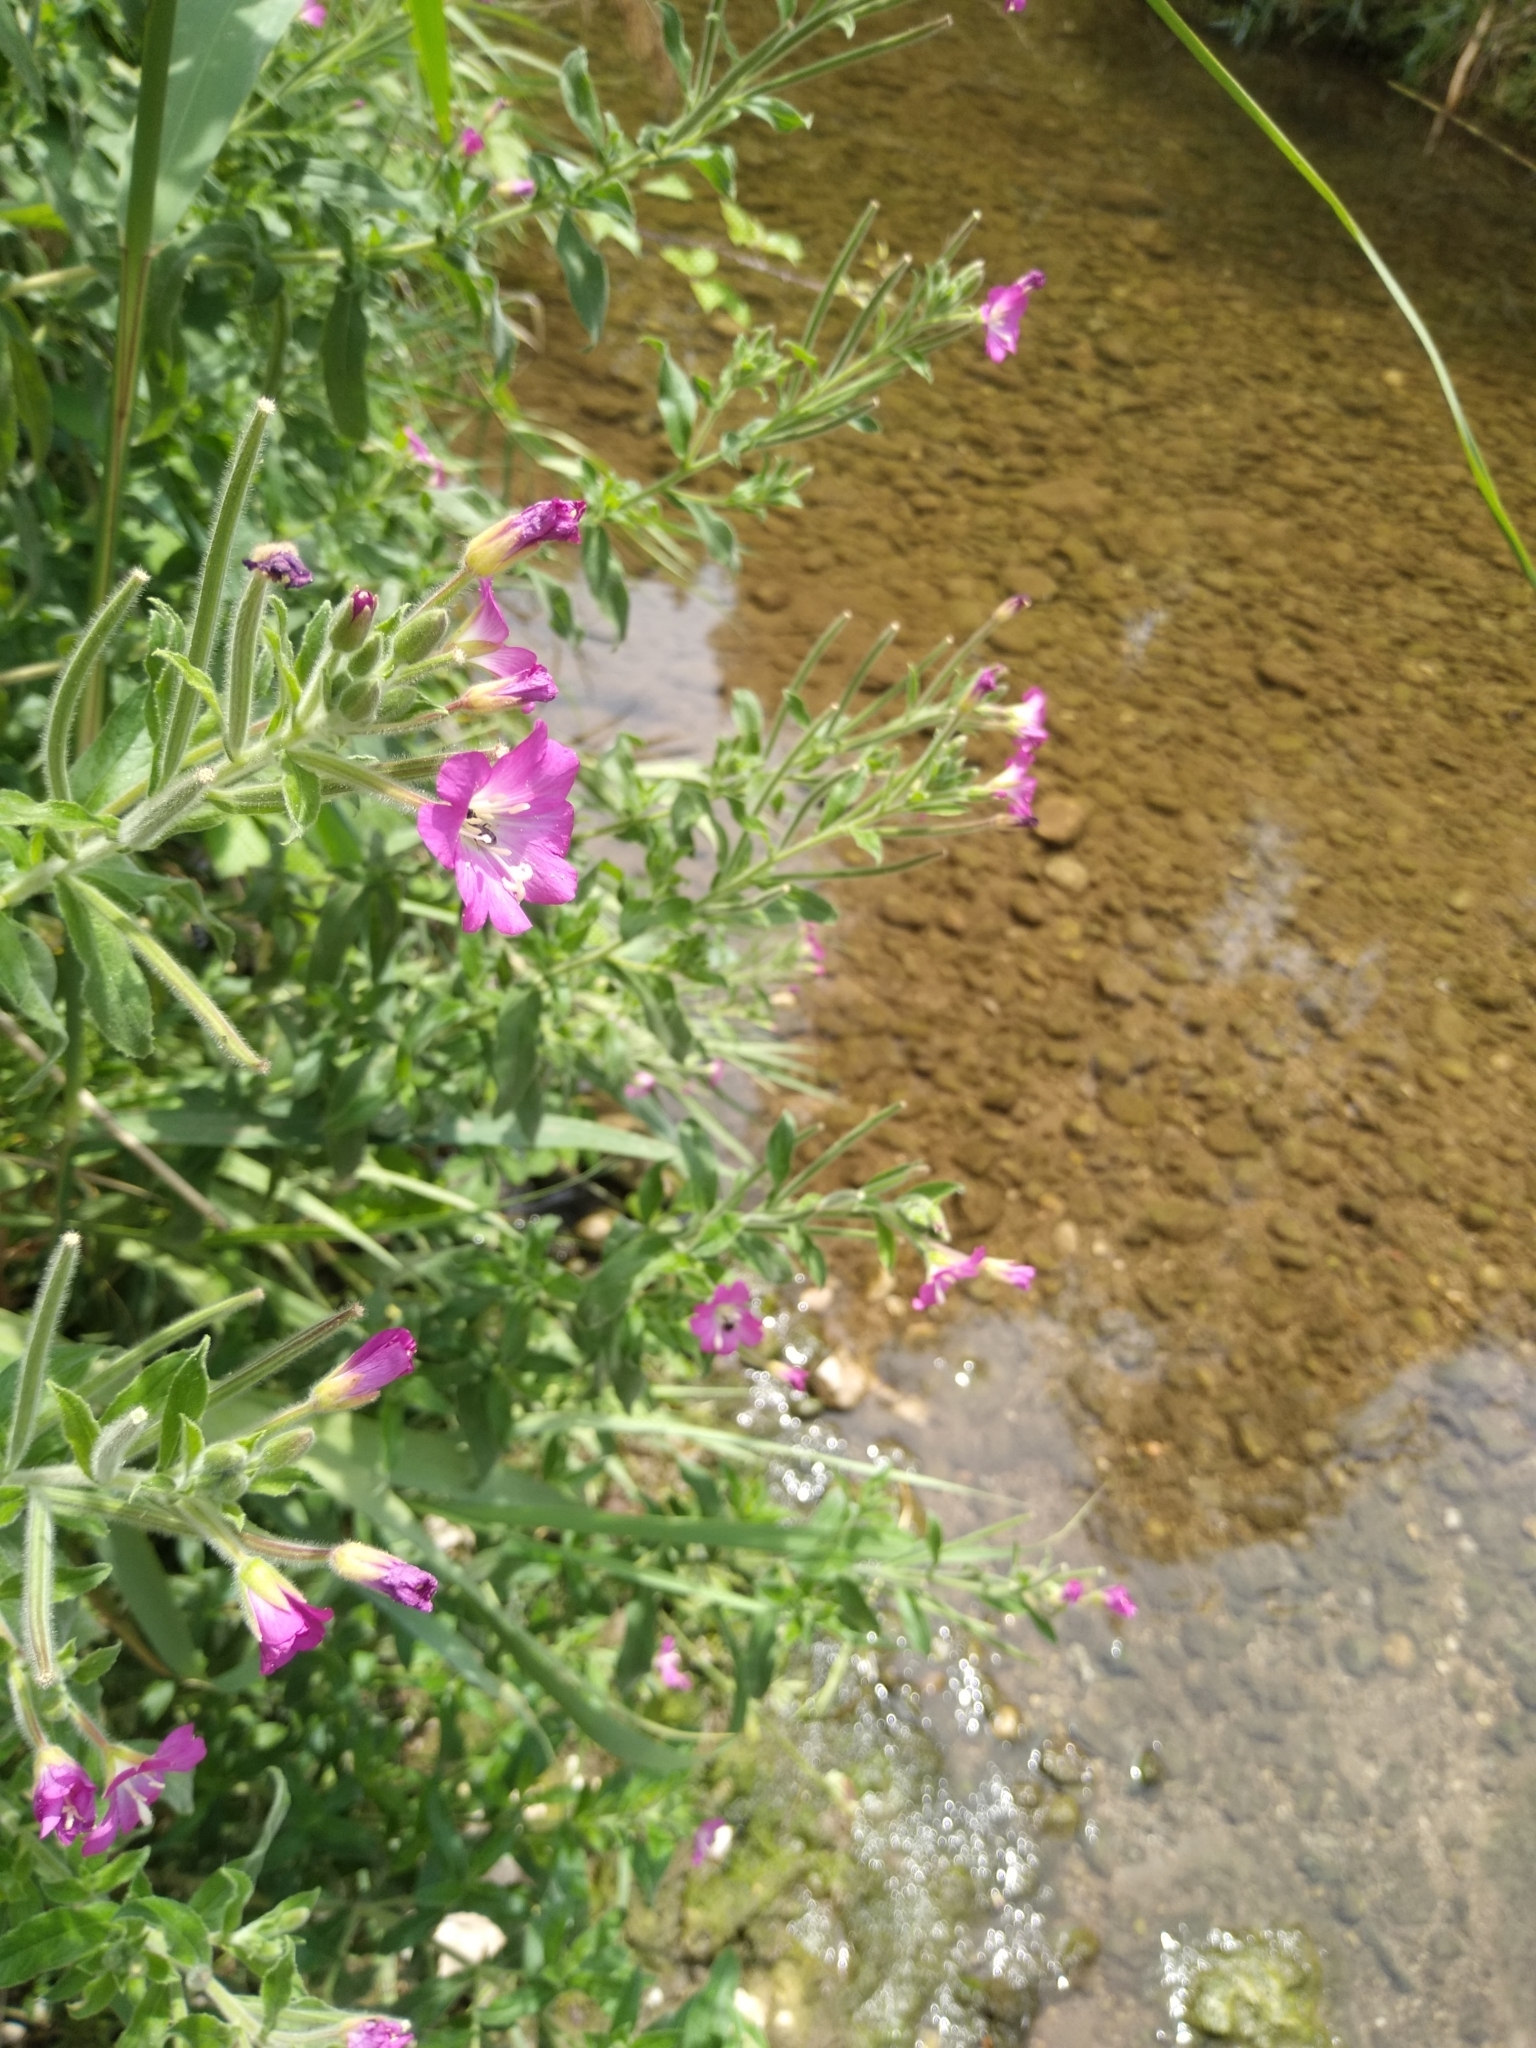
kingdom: Plantae
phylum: Tracheophyta
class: Magnoliopsida
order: Myrtales
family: Onagraceae
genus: Epilobium
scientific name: Epilobium hirsutum
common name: Great willowherb
